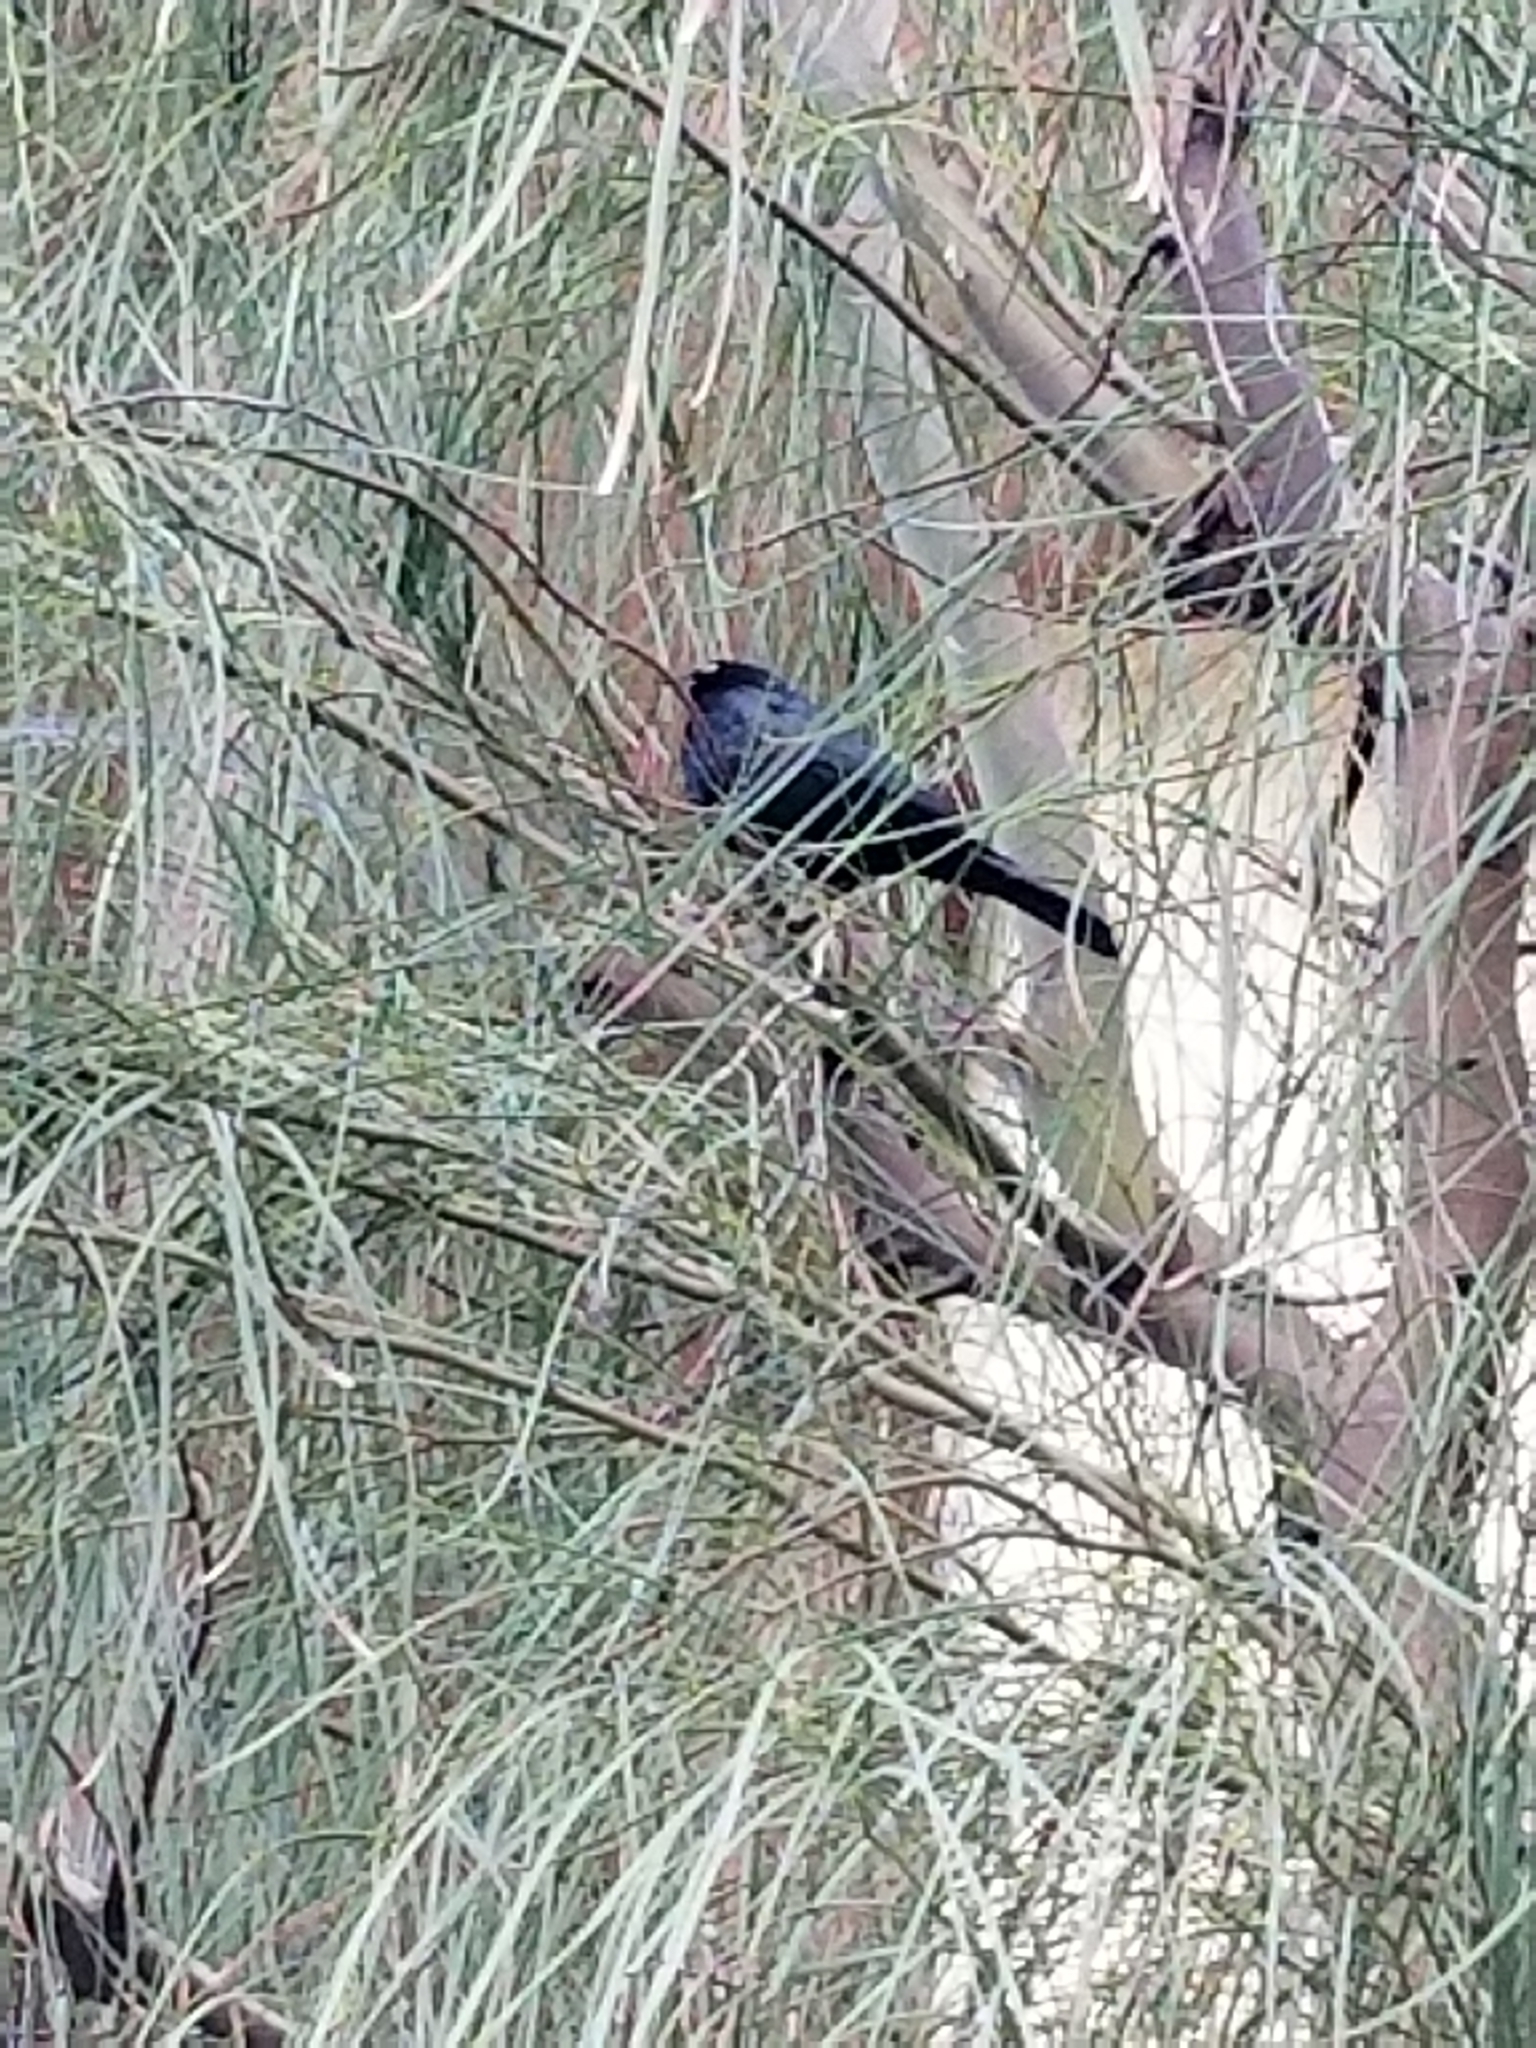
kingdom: Animalia
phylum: Chordata
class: Aves
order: Passeriformes
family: Icteridae
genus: Euphagus
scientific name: Euphagus cyanocephalus
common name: Brewer's blackbird
